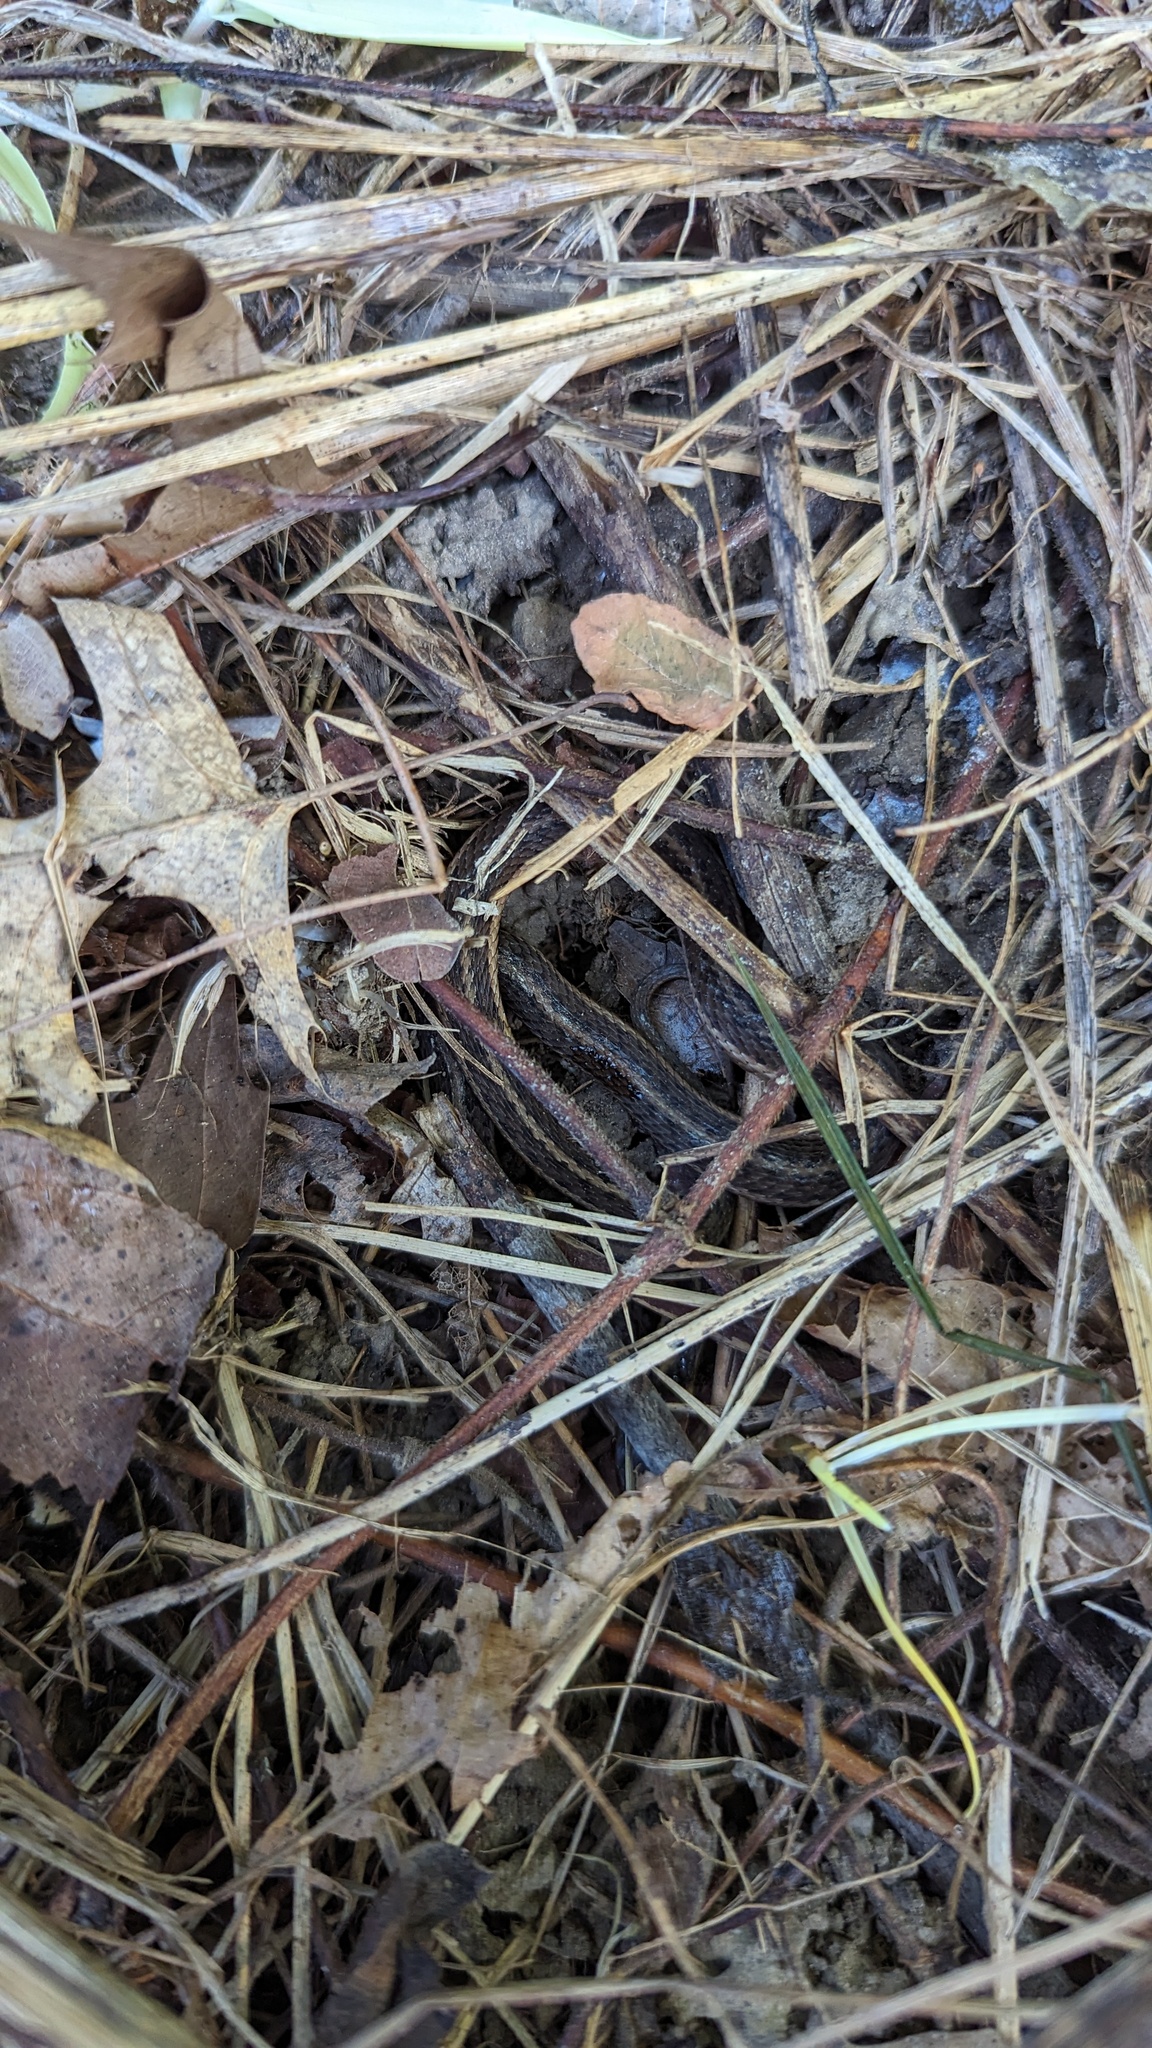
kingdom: Animalia
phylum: Chordata
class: Squamata
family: Colubridae
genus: Thamnophis
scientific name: Thamnophis sirtalis
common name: Common garter snake
